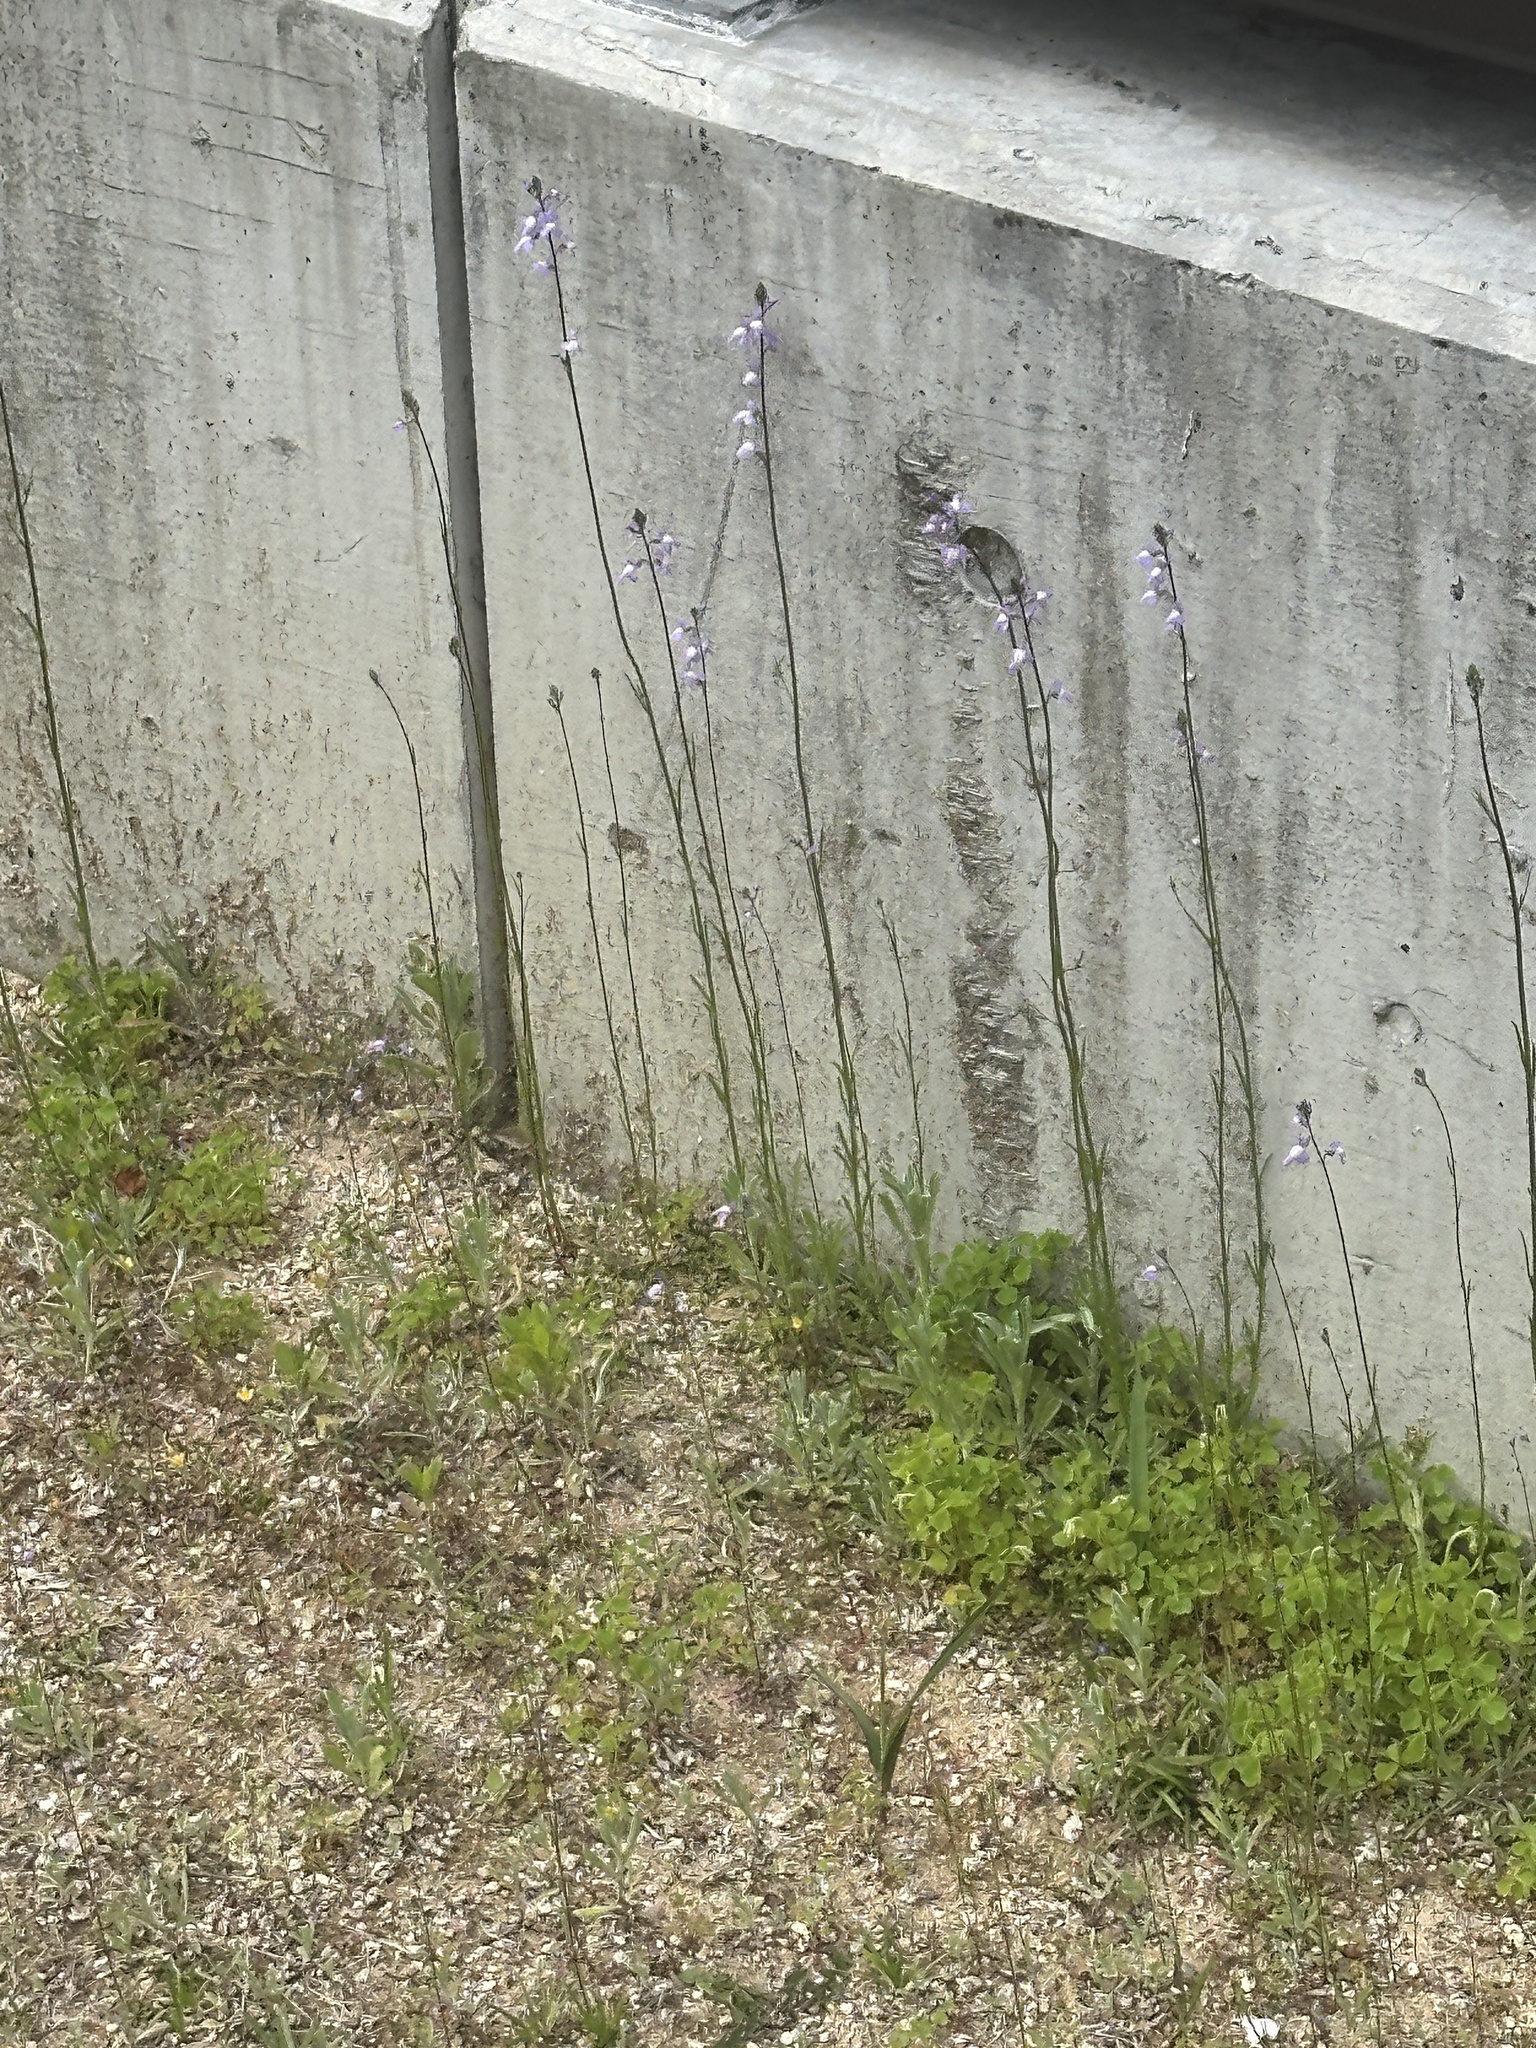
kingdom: Plantae
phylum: Tracheophyta
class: Magnoliopsida
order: Lamiales
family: Plantaginaceae
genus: Nuttallanthus
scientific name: Nuttallanthus canadensis
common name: Blue toadflax
